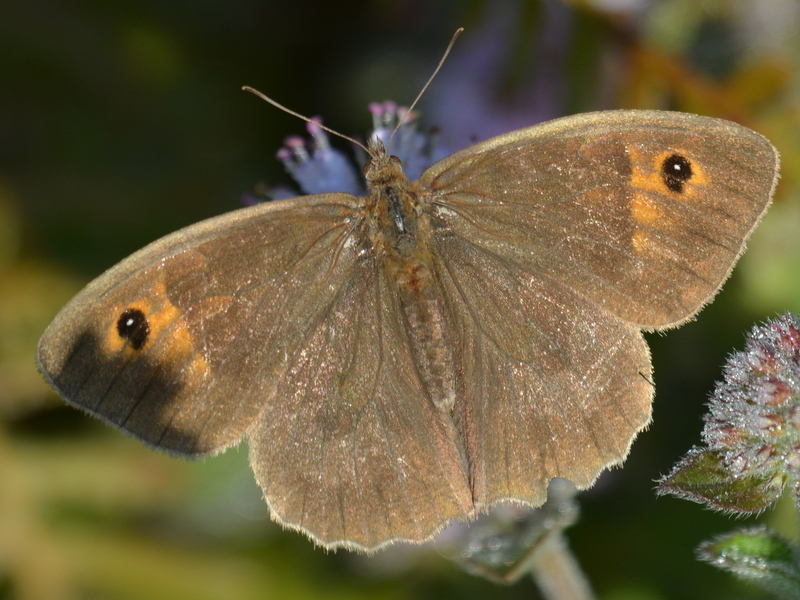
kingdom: Animalia
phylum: Arthropoda
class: Insecta
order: Lepidoptera
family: Nymphalidae
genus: Maniola
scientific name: Maniola jurtina
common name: Meadow brown
